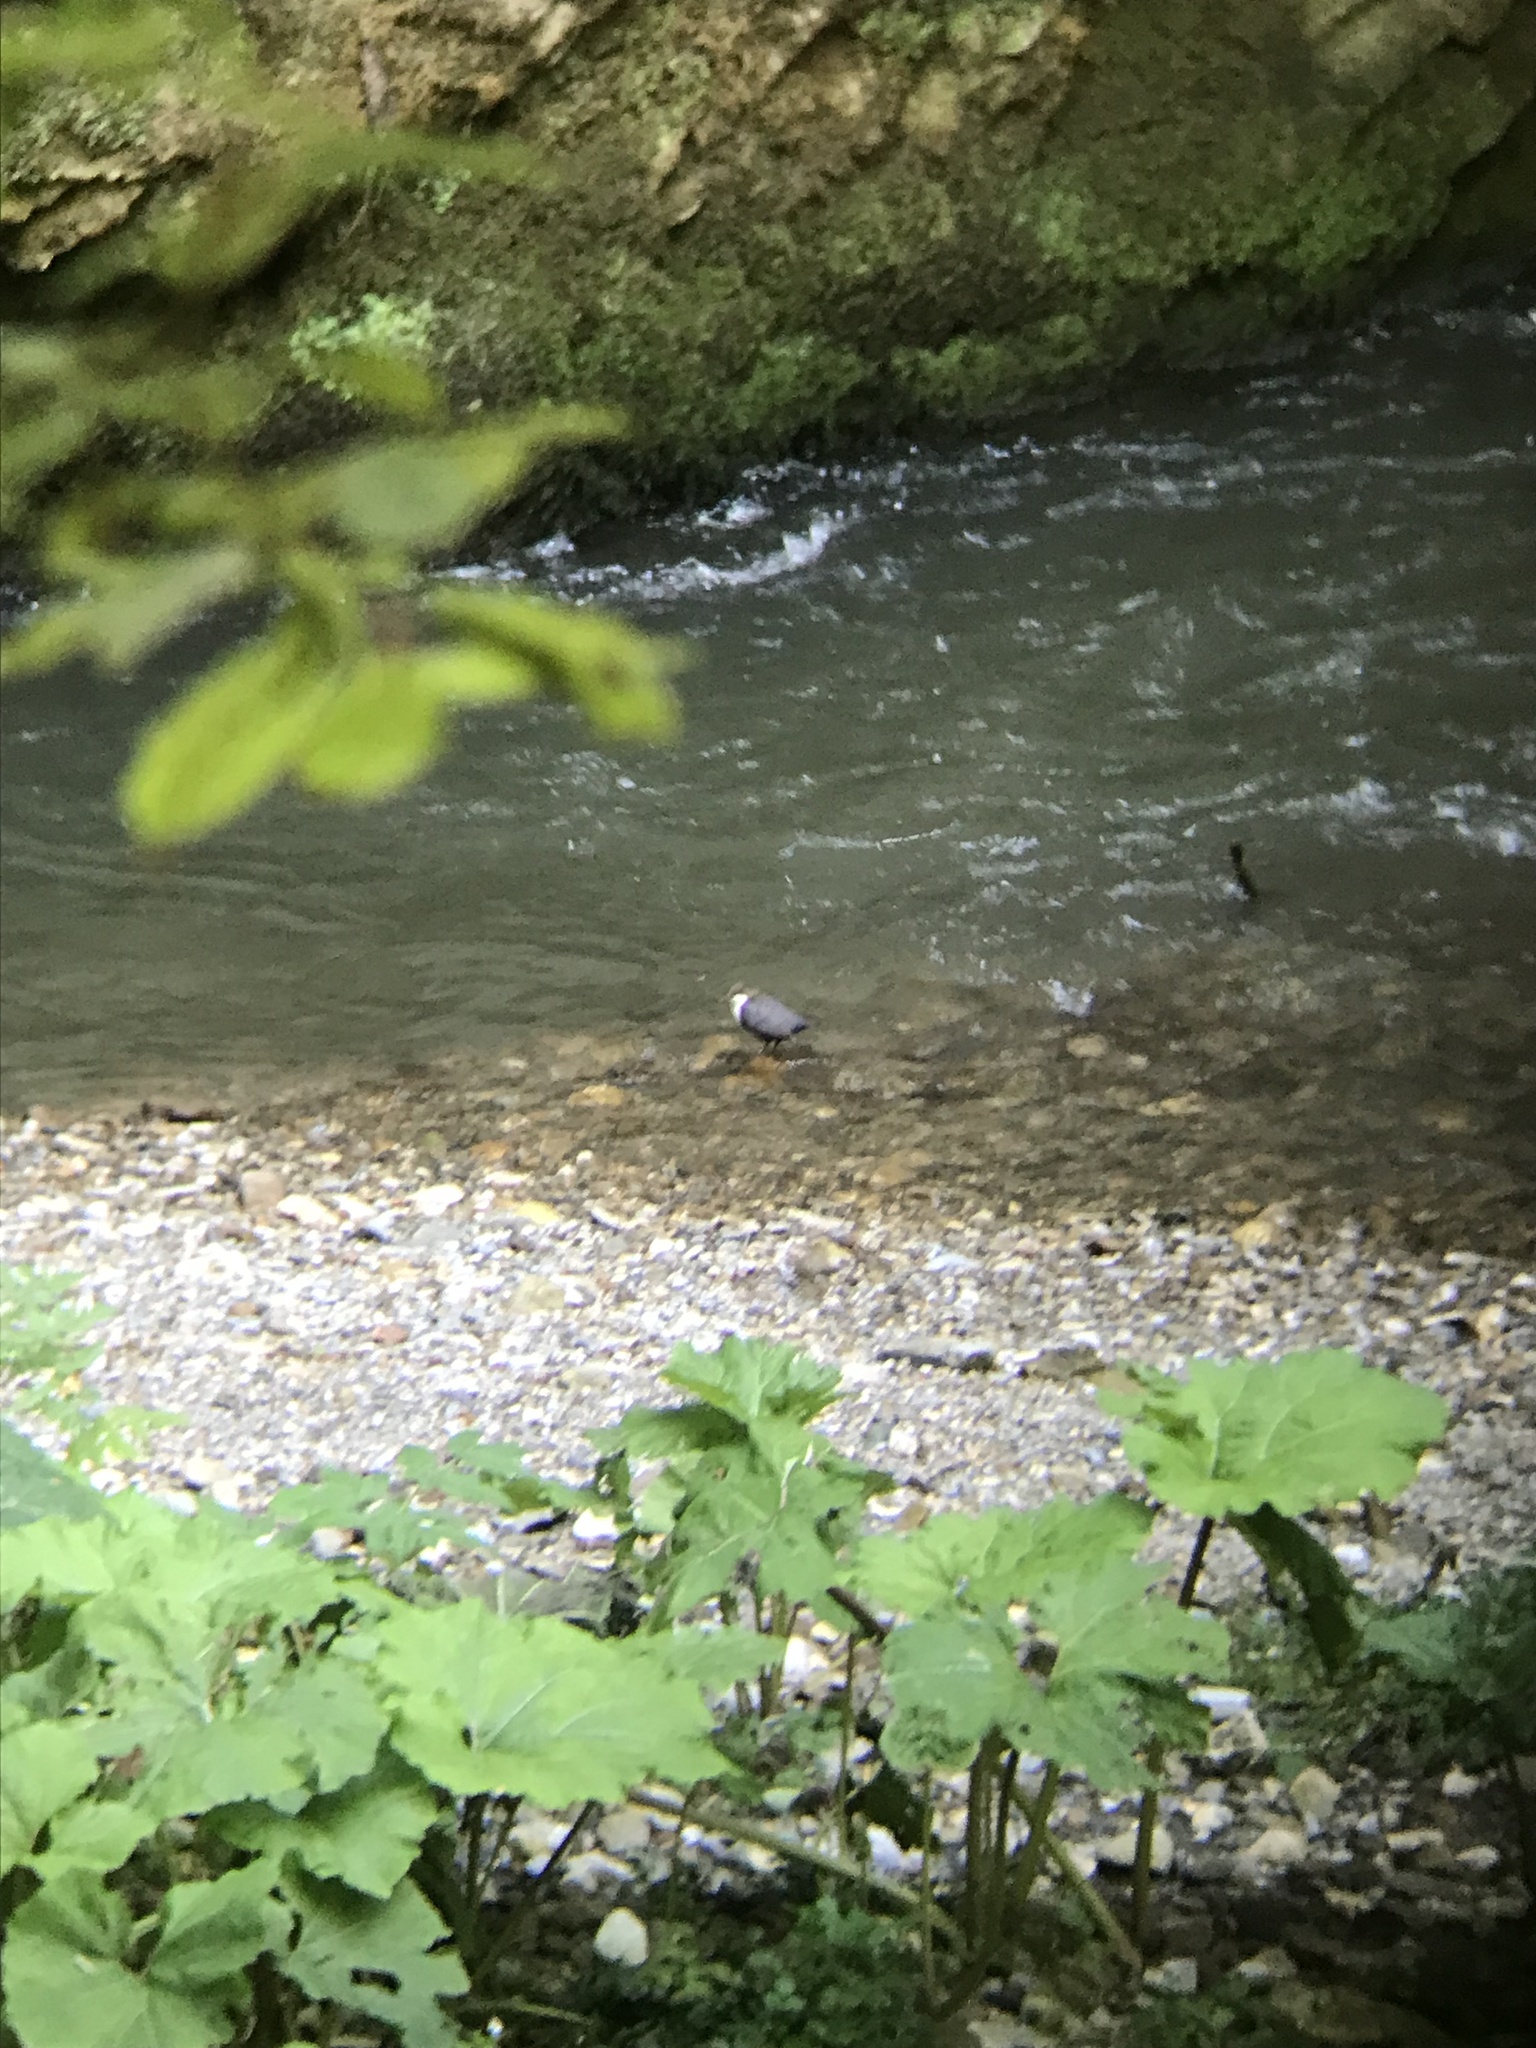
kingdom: Animalia
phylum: Chordata
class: Aves
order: Passeriformes
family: Cinclidae
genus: Cinclus
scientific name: Cinclus cinclus
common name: White-throated dipper
